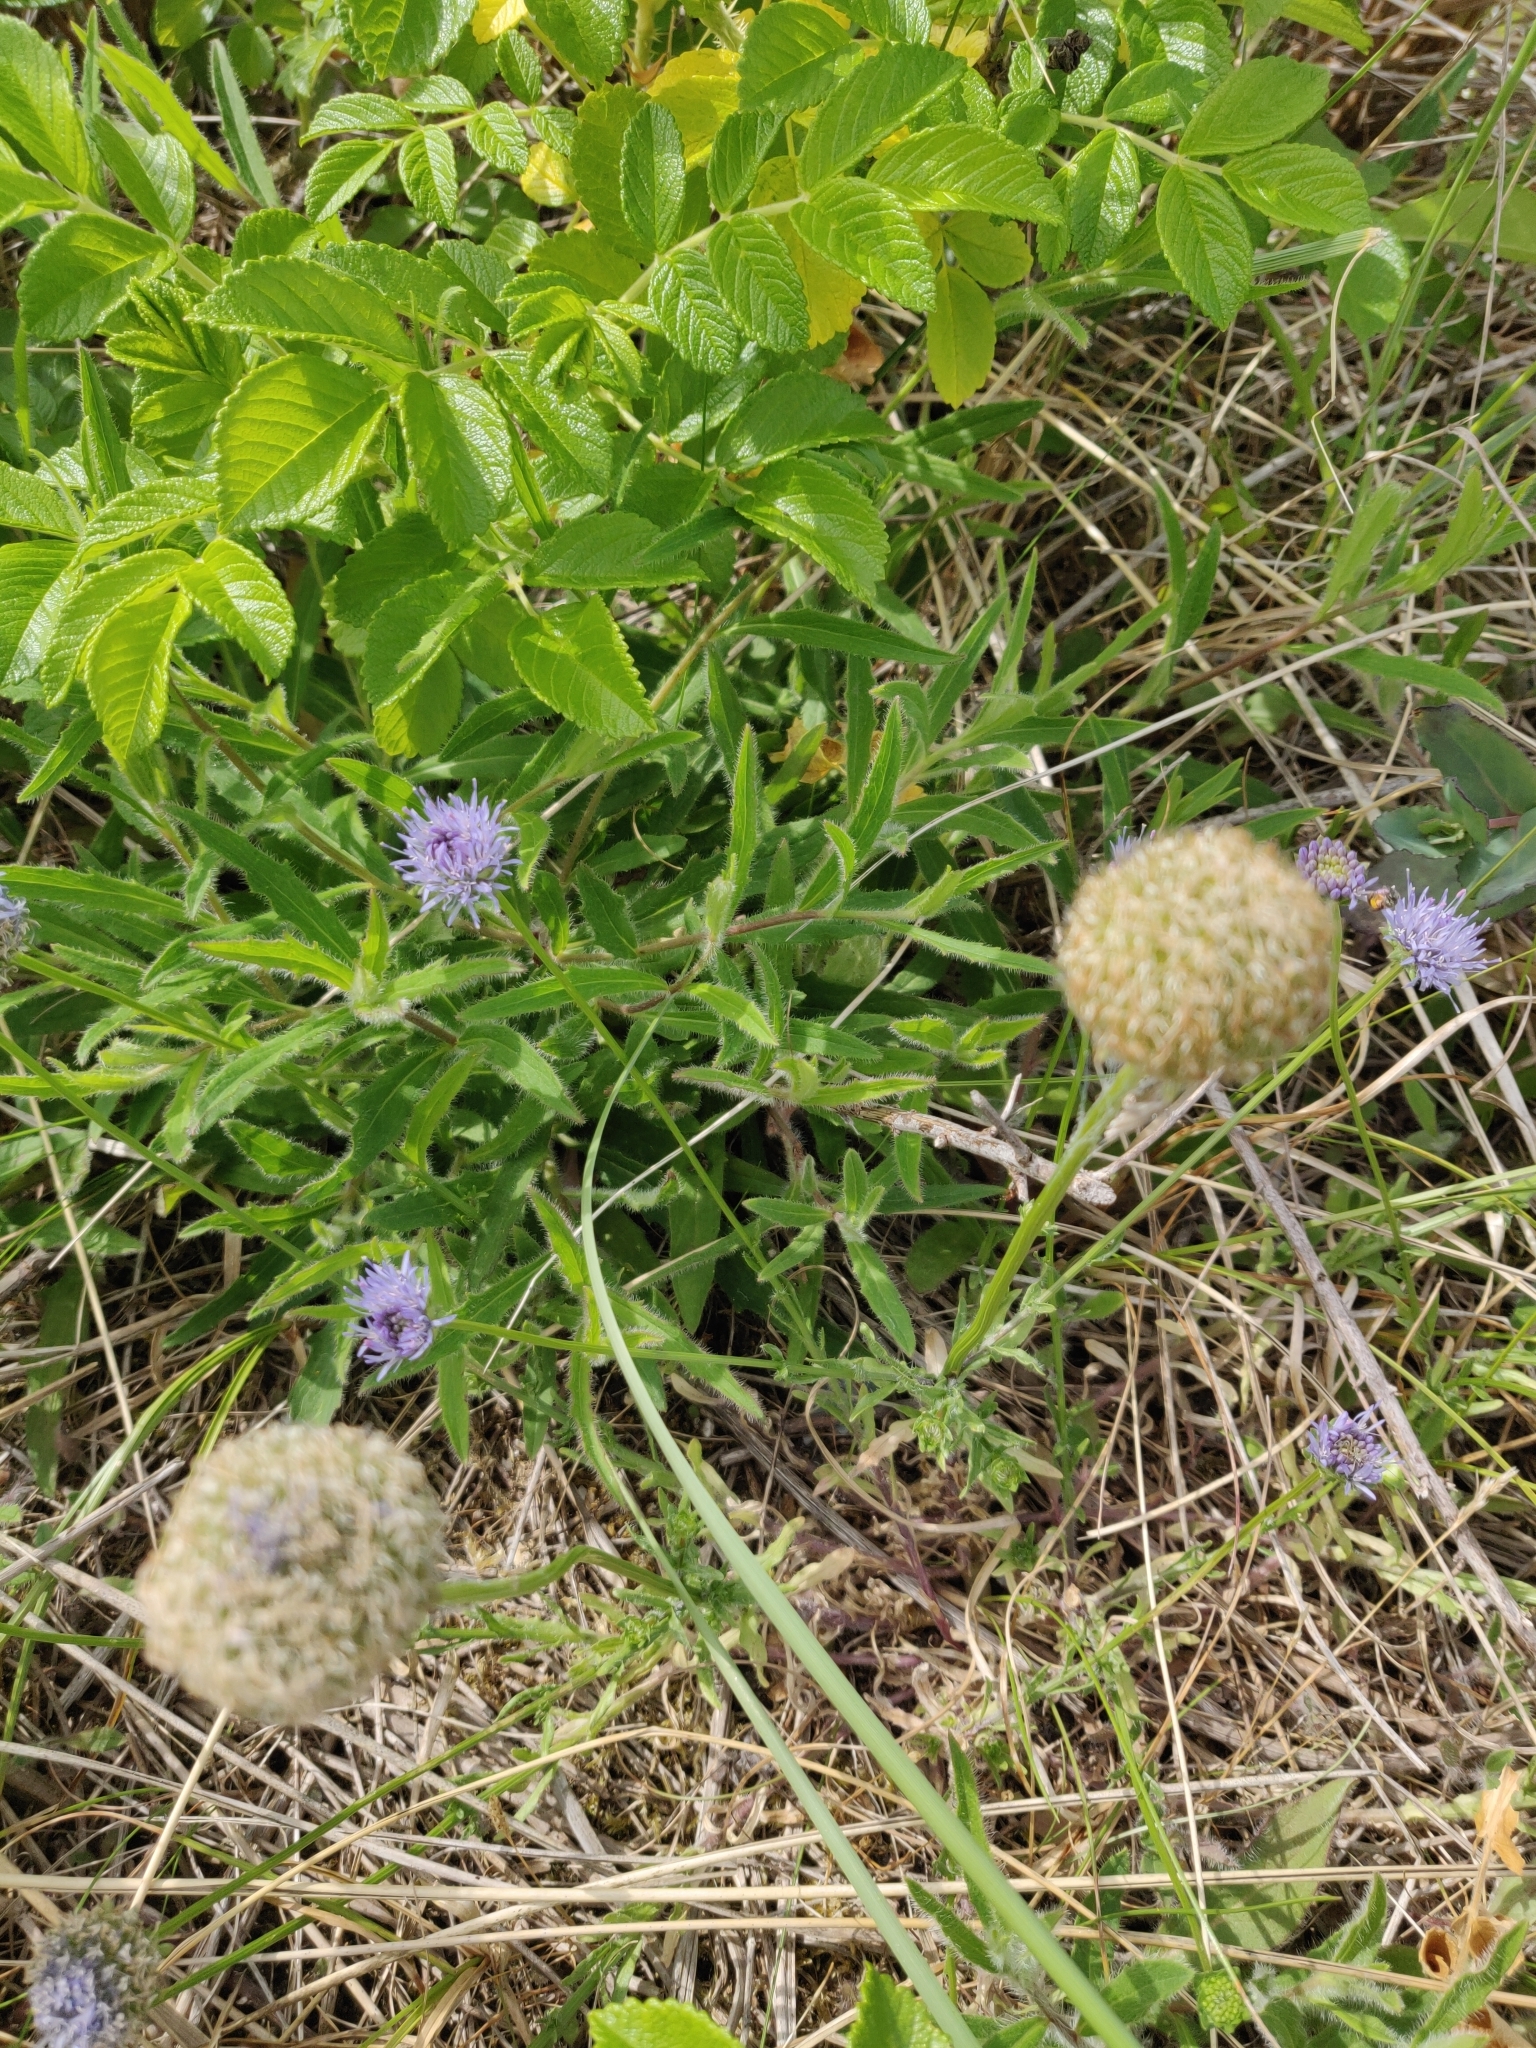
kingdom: Plantae
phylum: Tracheophyta
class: Magnoliopsida
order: Asterales
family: Campanulaceae
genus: Jasione
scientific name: Jasione montana
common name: Sheep's-bit
